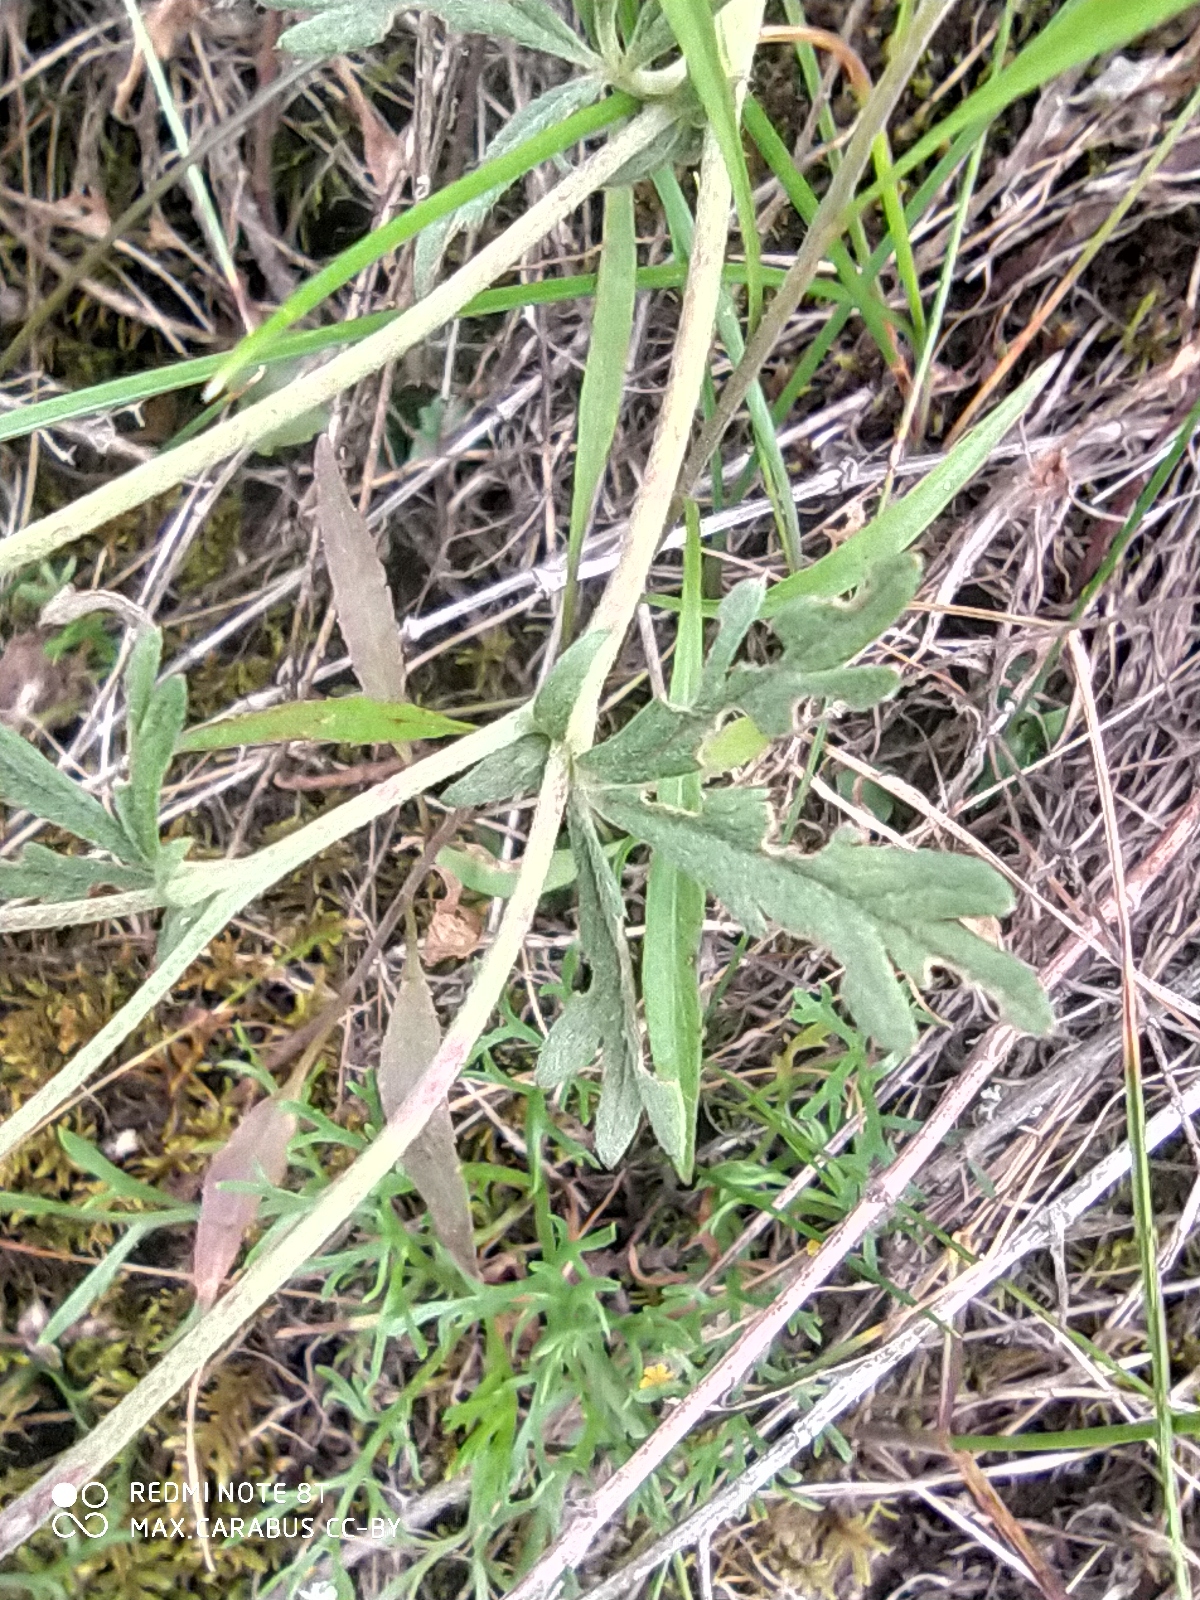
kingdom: Plantae
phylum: Tracheophyta
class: Magnoliopsida
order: Rosales
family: Rosaceae
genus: Potentilla
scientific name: Potentilla argentea
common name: Hoary cinquefoil
